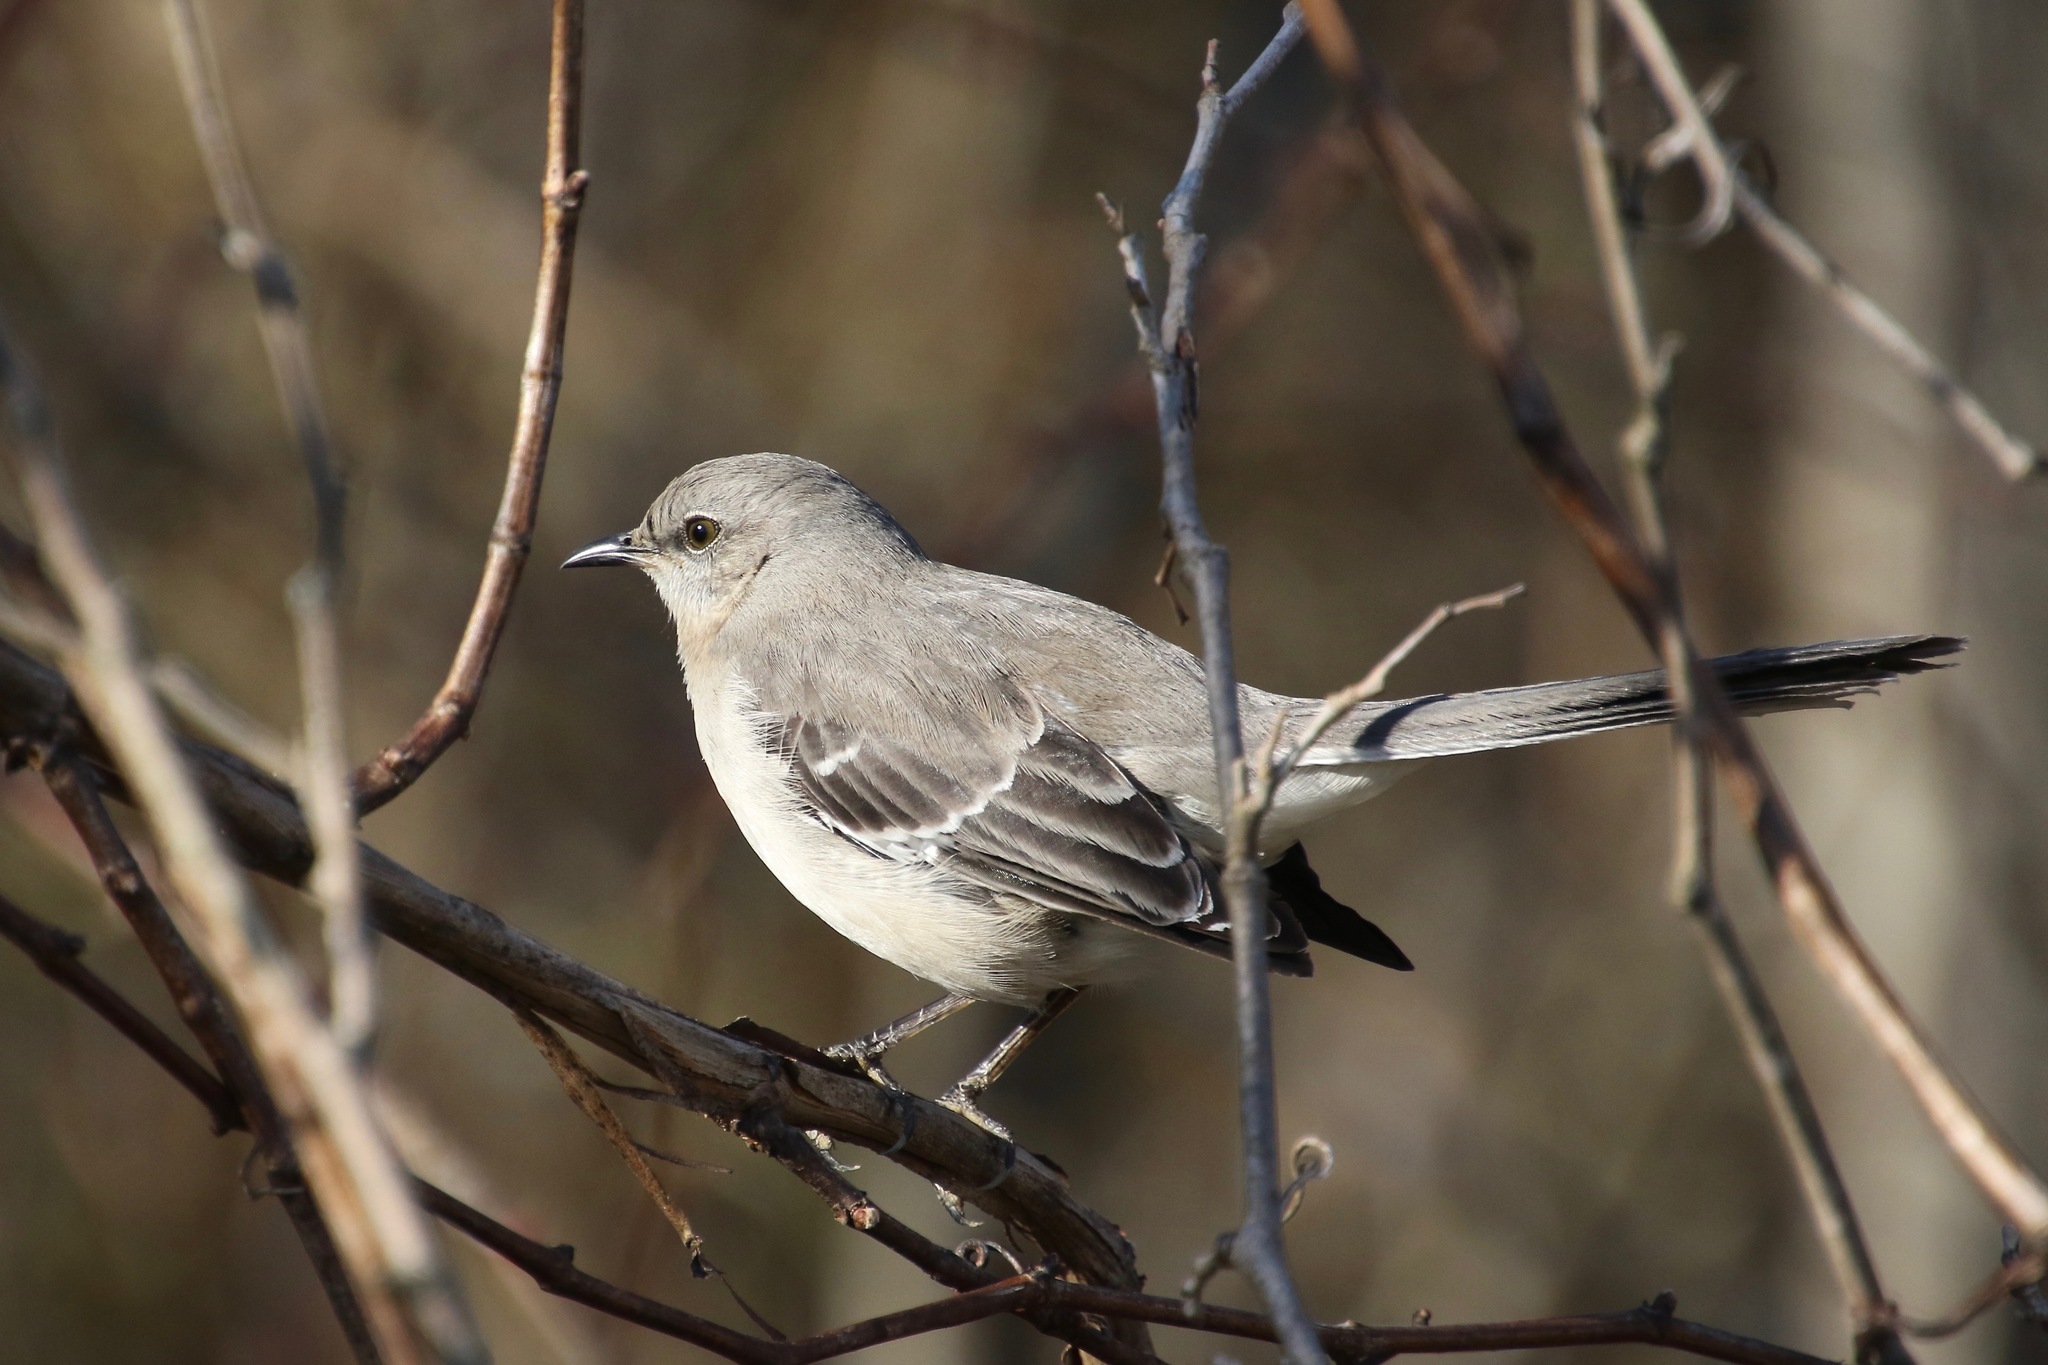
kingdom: Animalia
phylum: Chordata
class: Aves
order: Passeriformes
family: Mimidae
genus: Mimus
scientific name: Mimus polyglottos
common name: Northern mockingbird
